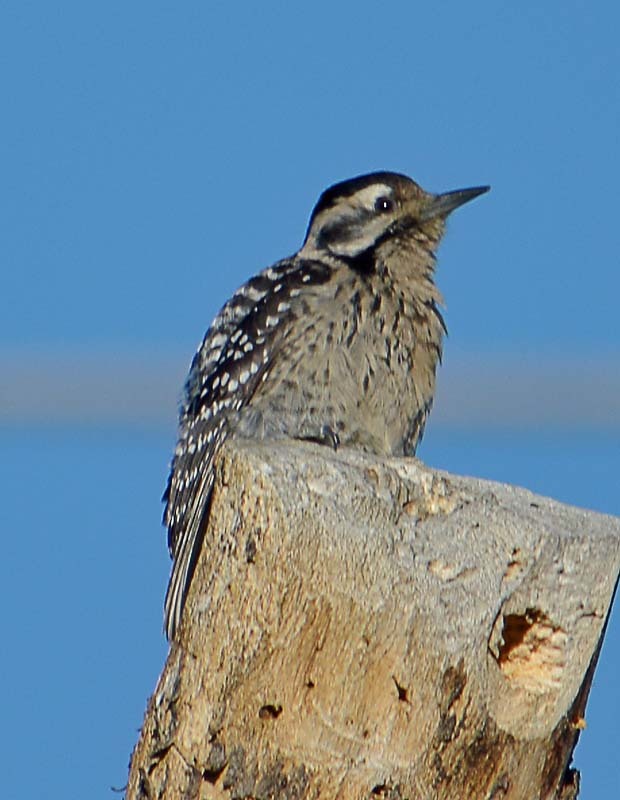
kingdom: Animalia
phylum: Chordata
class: Aves
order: Piciformes
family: Picidae
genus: Dryobates
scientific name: Dryobates scalaris
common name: Ladder-backed woodpecker
